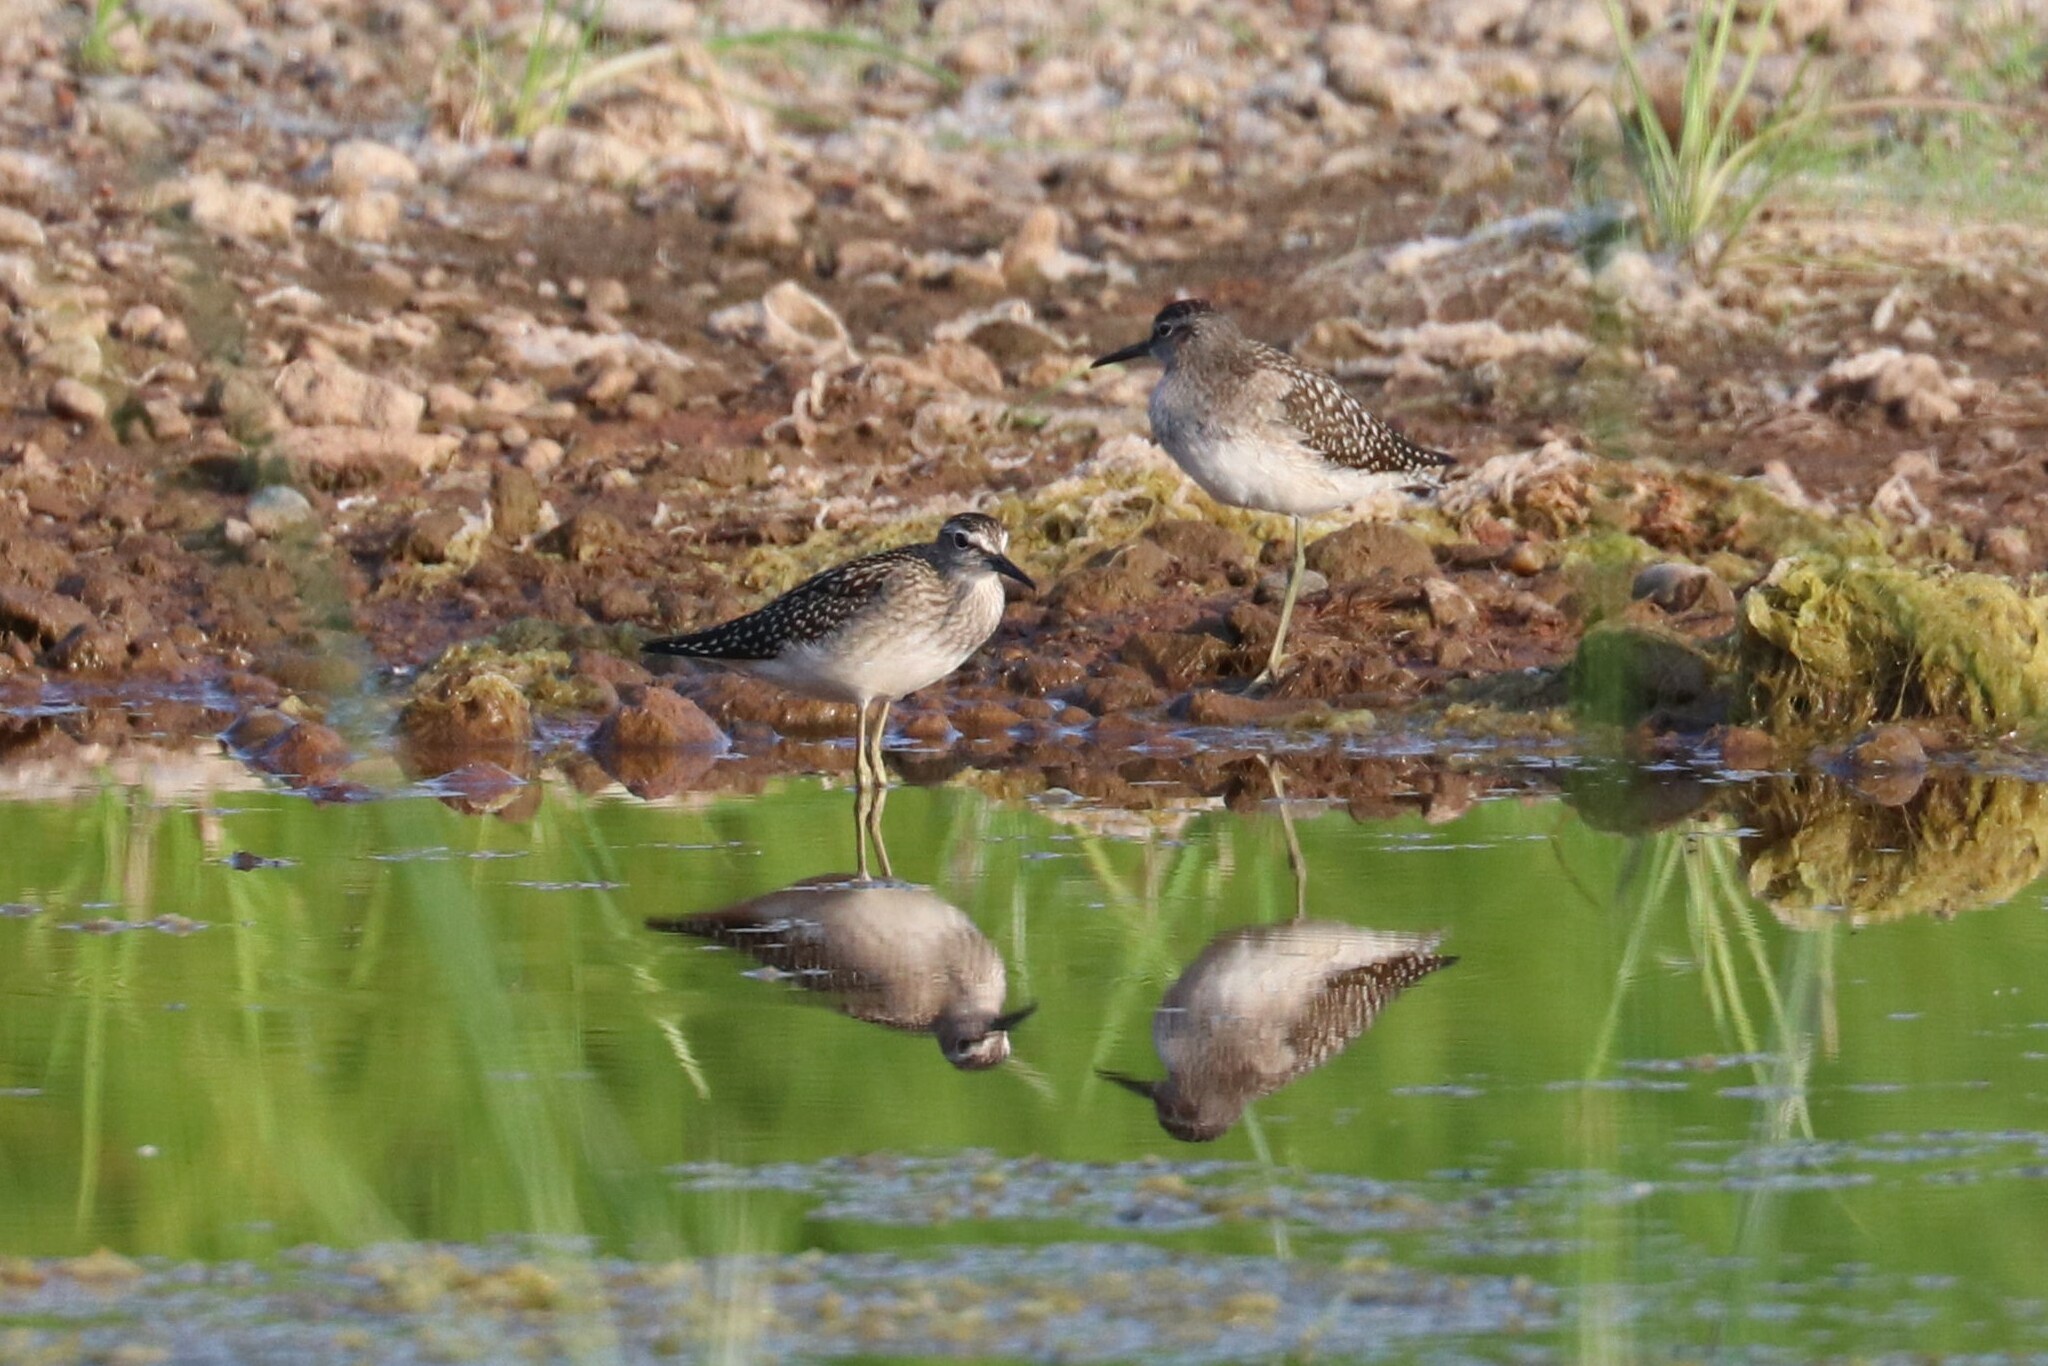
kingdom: Animalia
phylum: Chordata
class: Aves
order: Charadriiformes
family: Scolopacidae
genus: Tringa
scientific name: Tringa glareola
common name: Wood sandpiper
